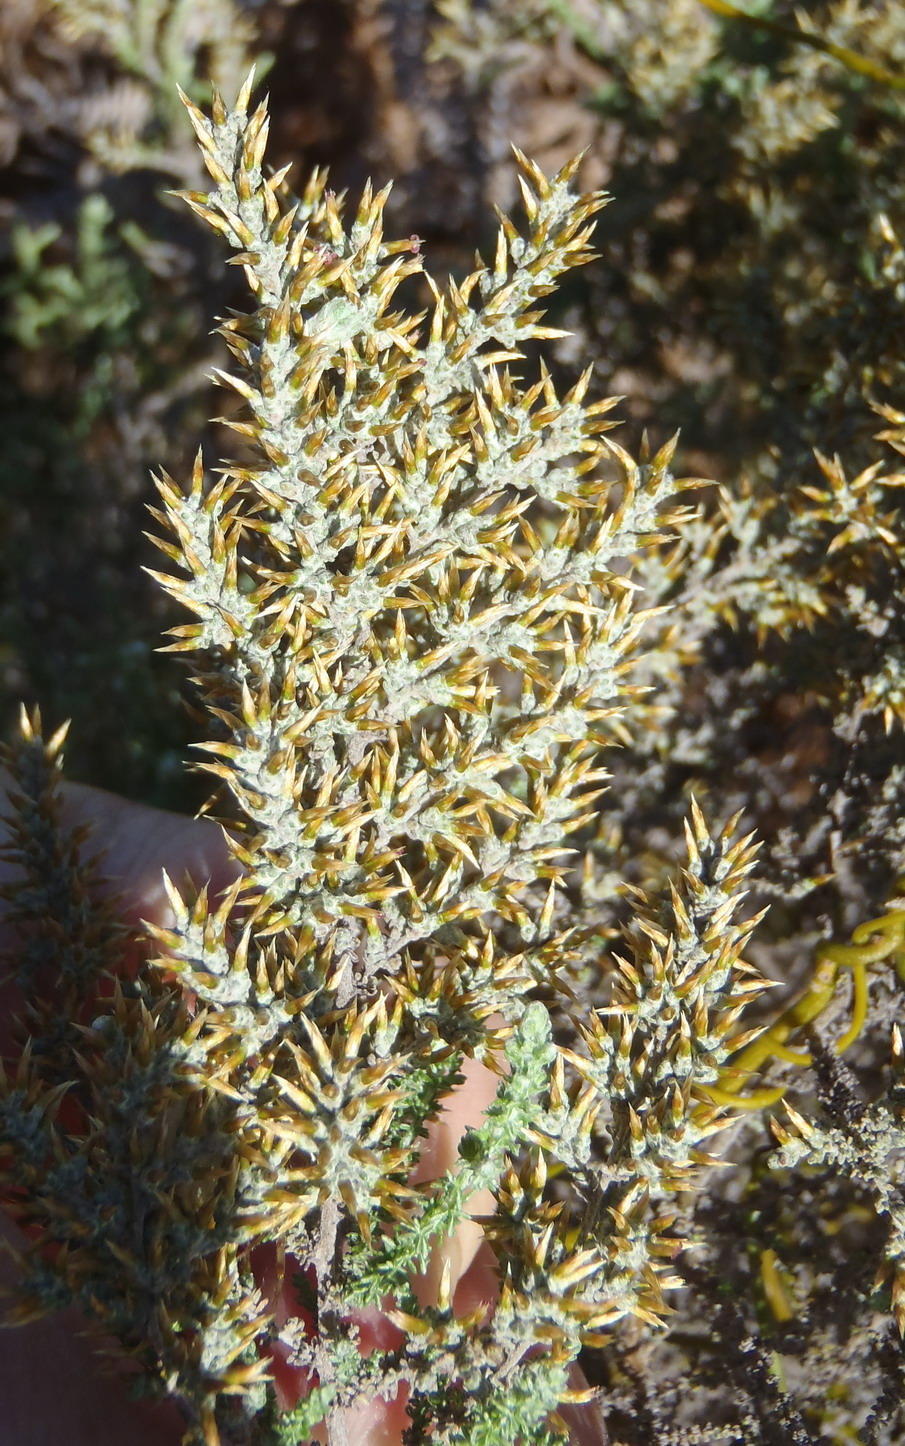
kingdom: Plantae
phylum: Tracheophyta
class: Magnoliopsida
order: Asterales
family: Asteraceae
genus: Seriphium
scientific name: Seriphium plumosum
